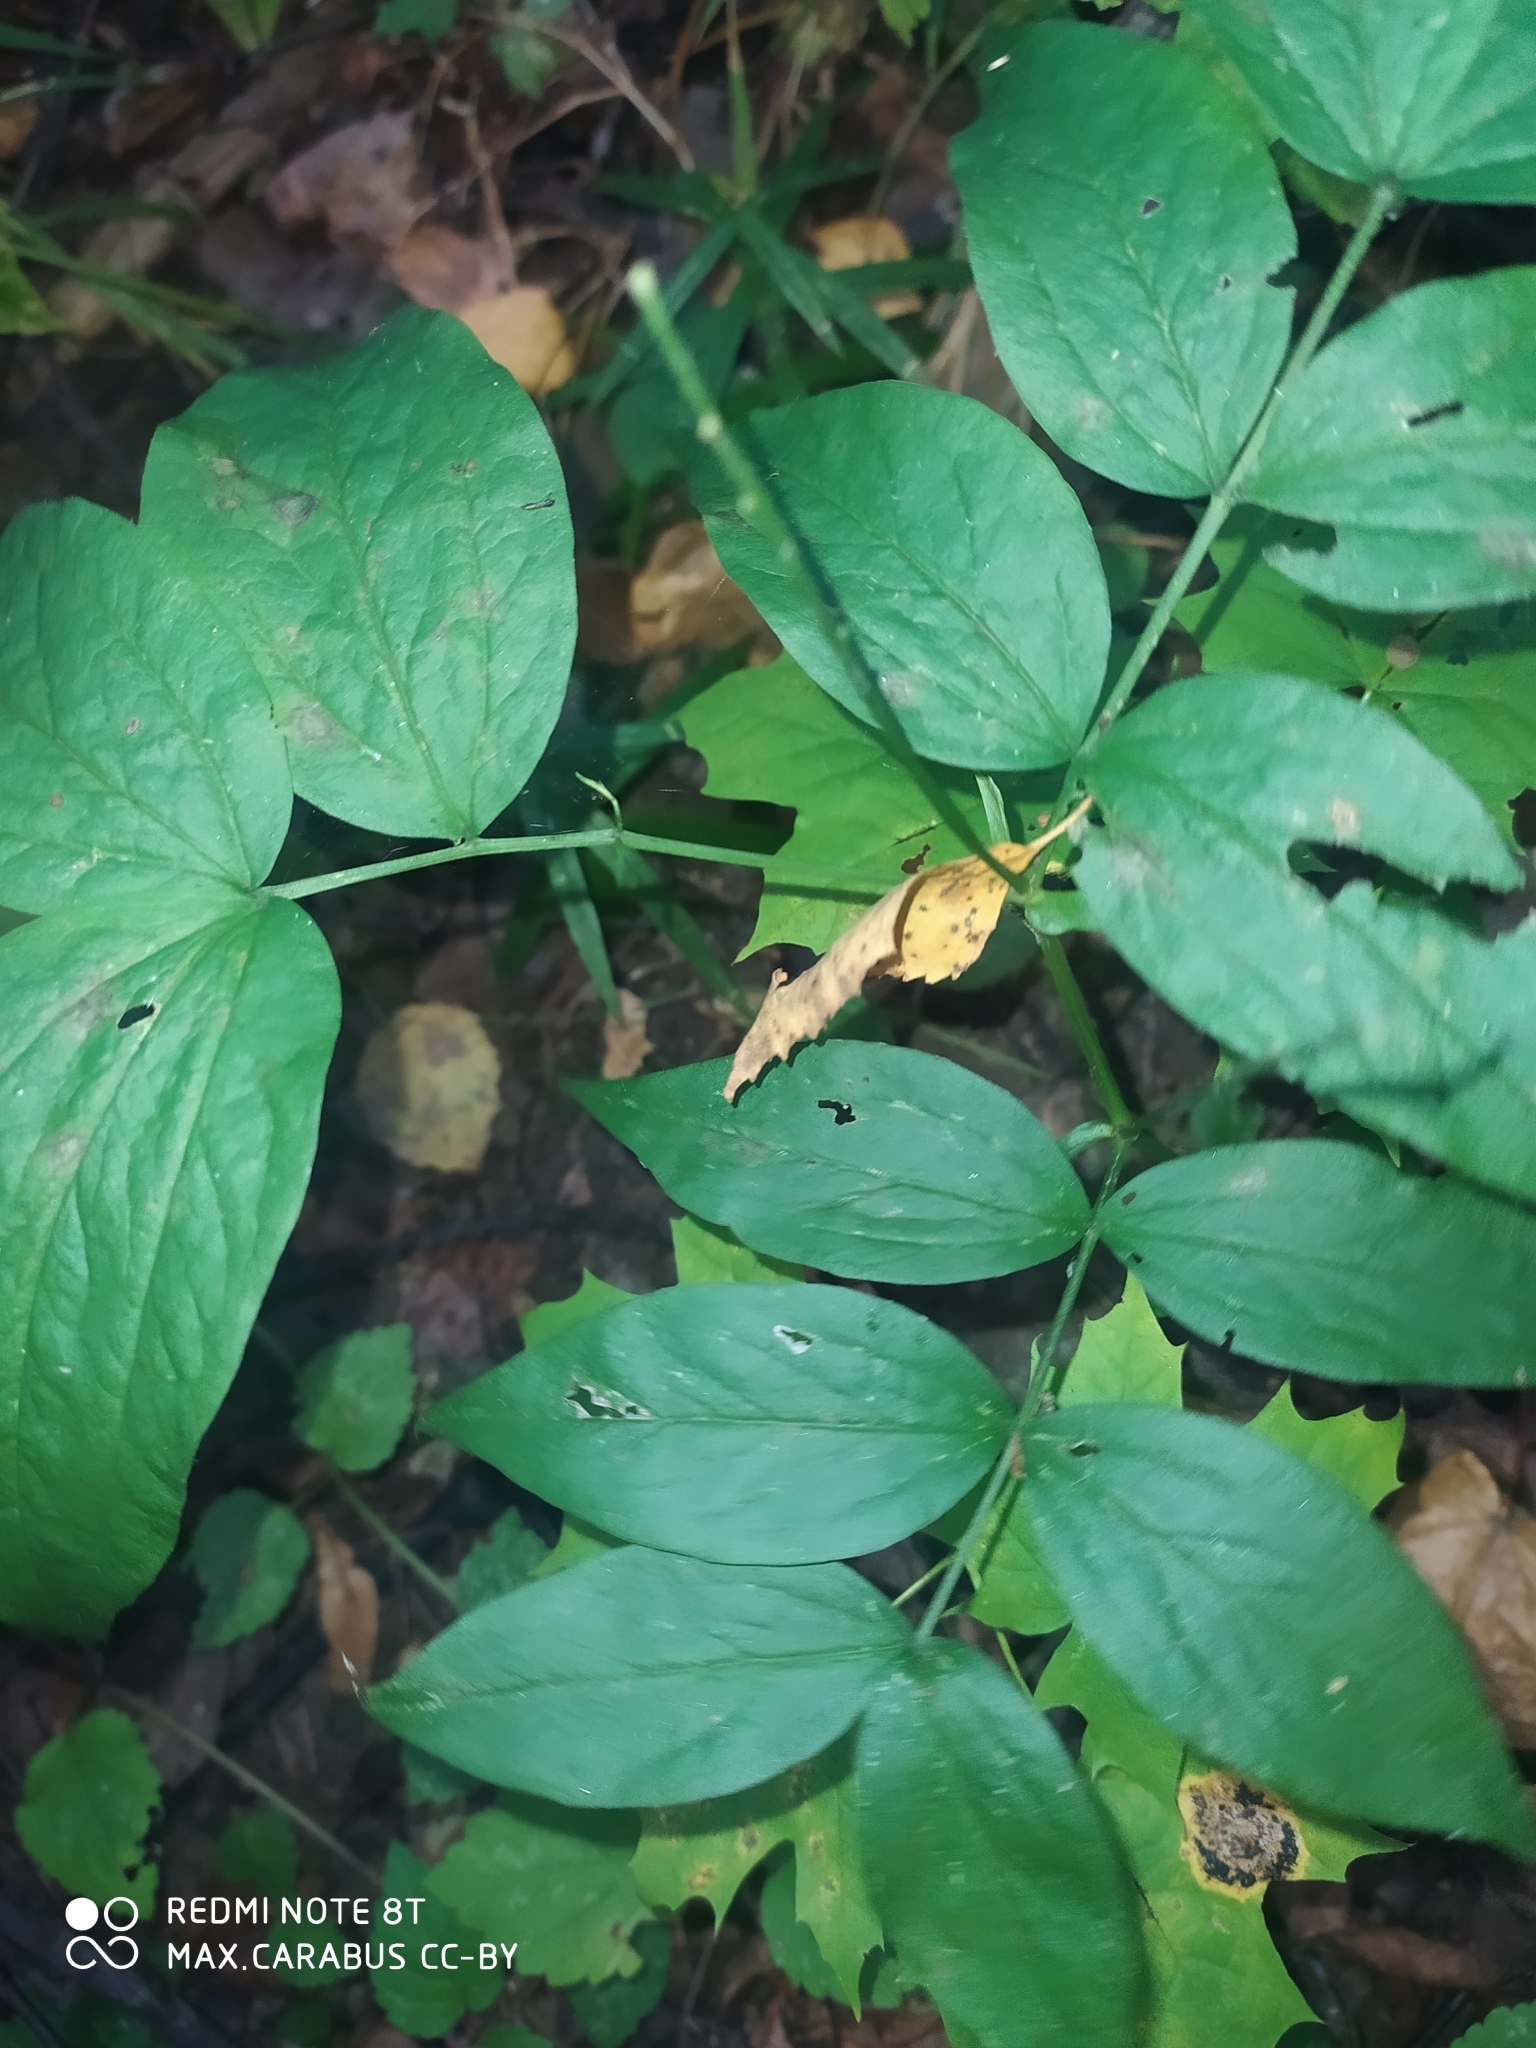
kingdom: Plantae
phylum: Tracheophyta
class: Magnoliopsida
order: Fabales
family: Fabaceae
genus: Lathyrus
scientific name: Lathyrus vernus
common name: Spring pea
